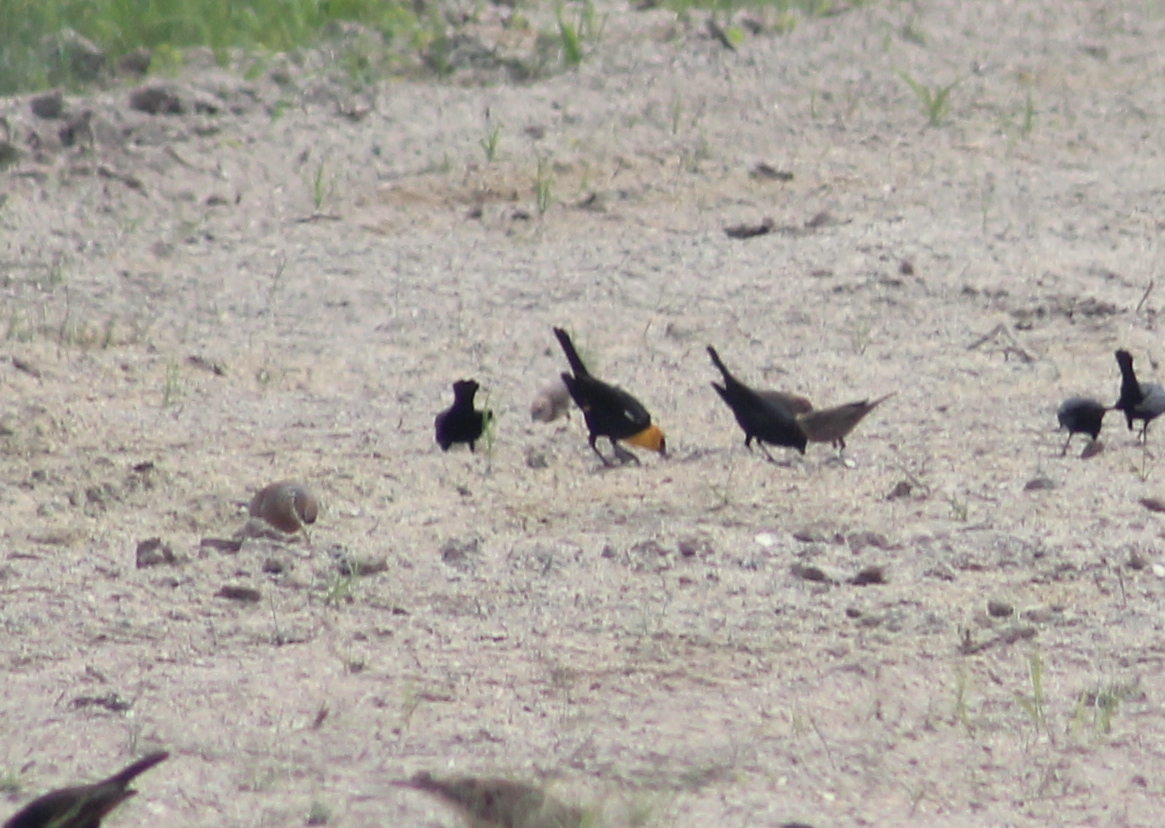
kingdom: Animalia
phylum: Chordata
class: Aves
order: Passeriformes
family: Icteridae
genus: Xanthocephalus
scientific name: Xanthocephalus xanthocephalus
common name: Yellow-headed blackbird
